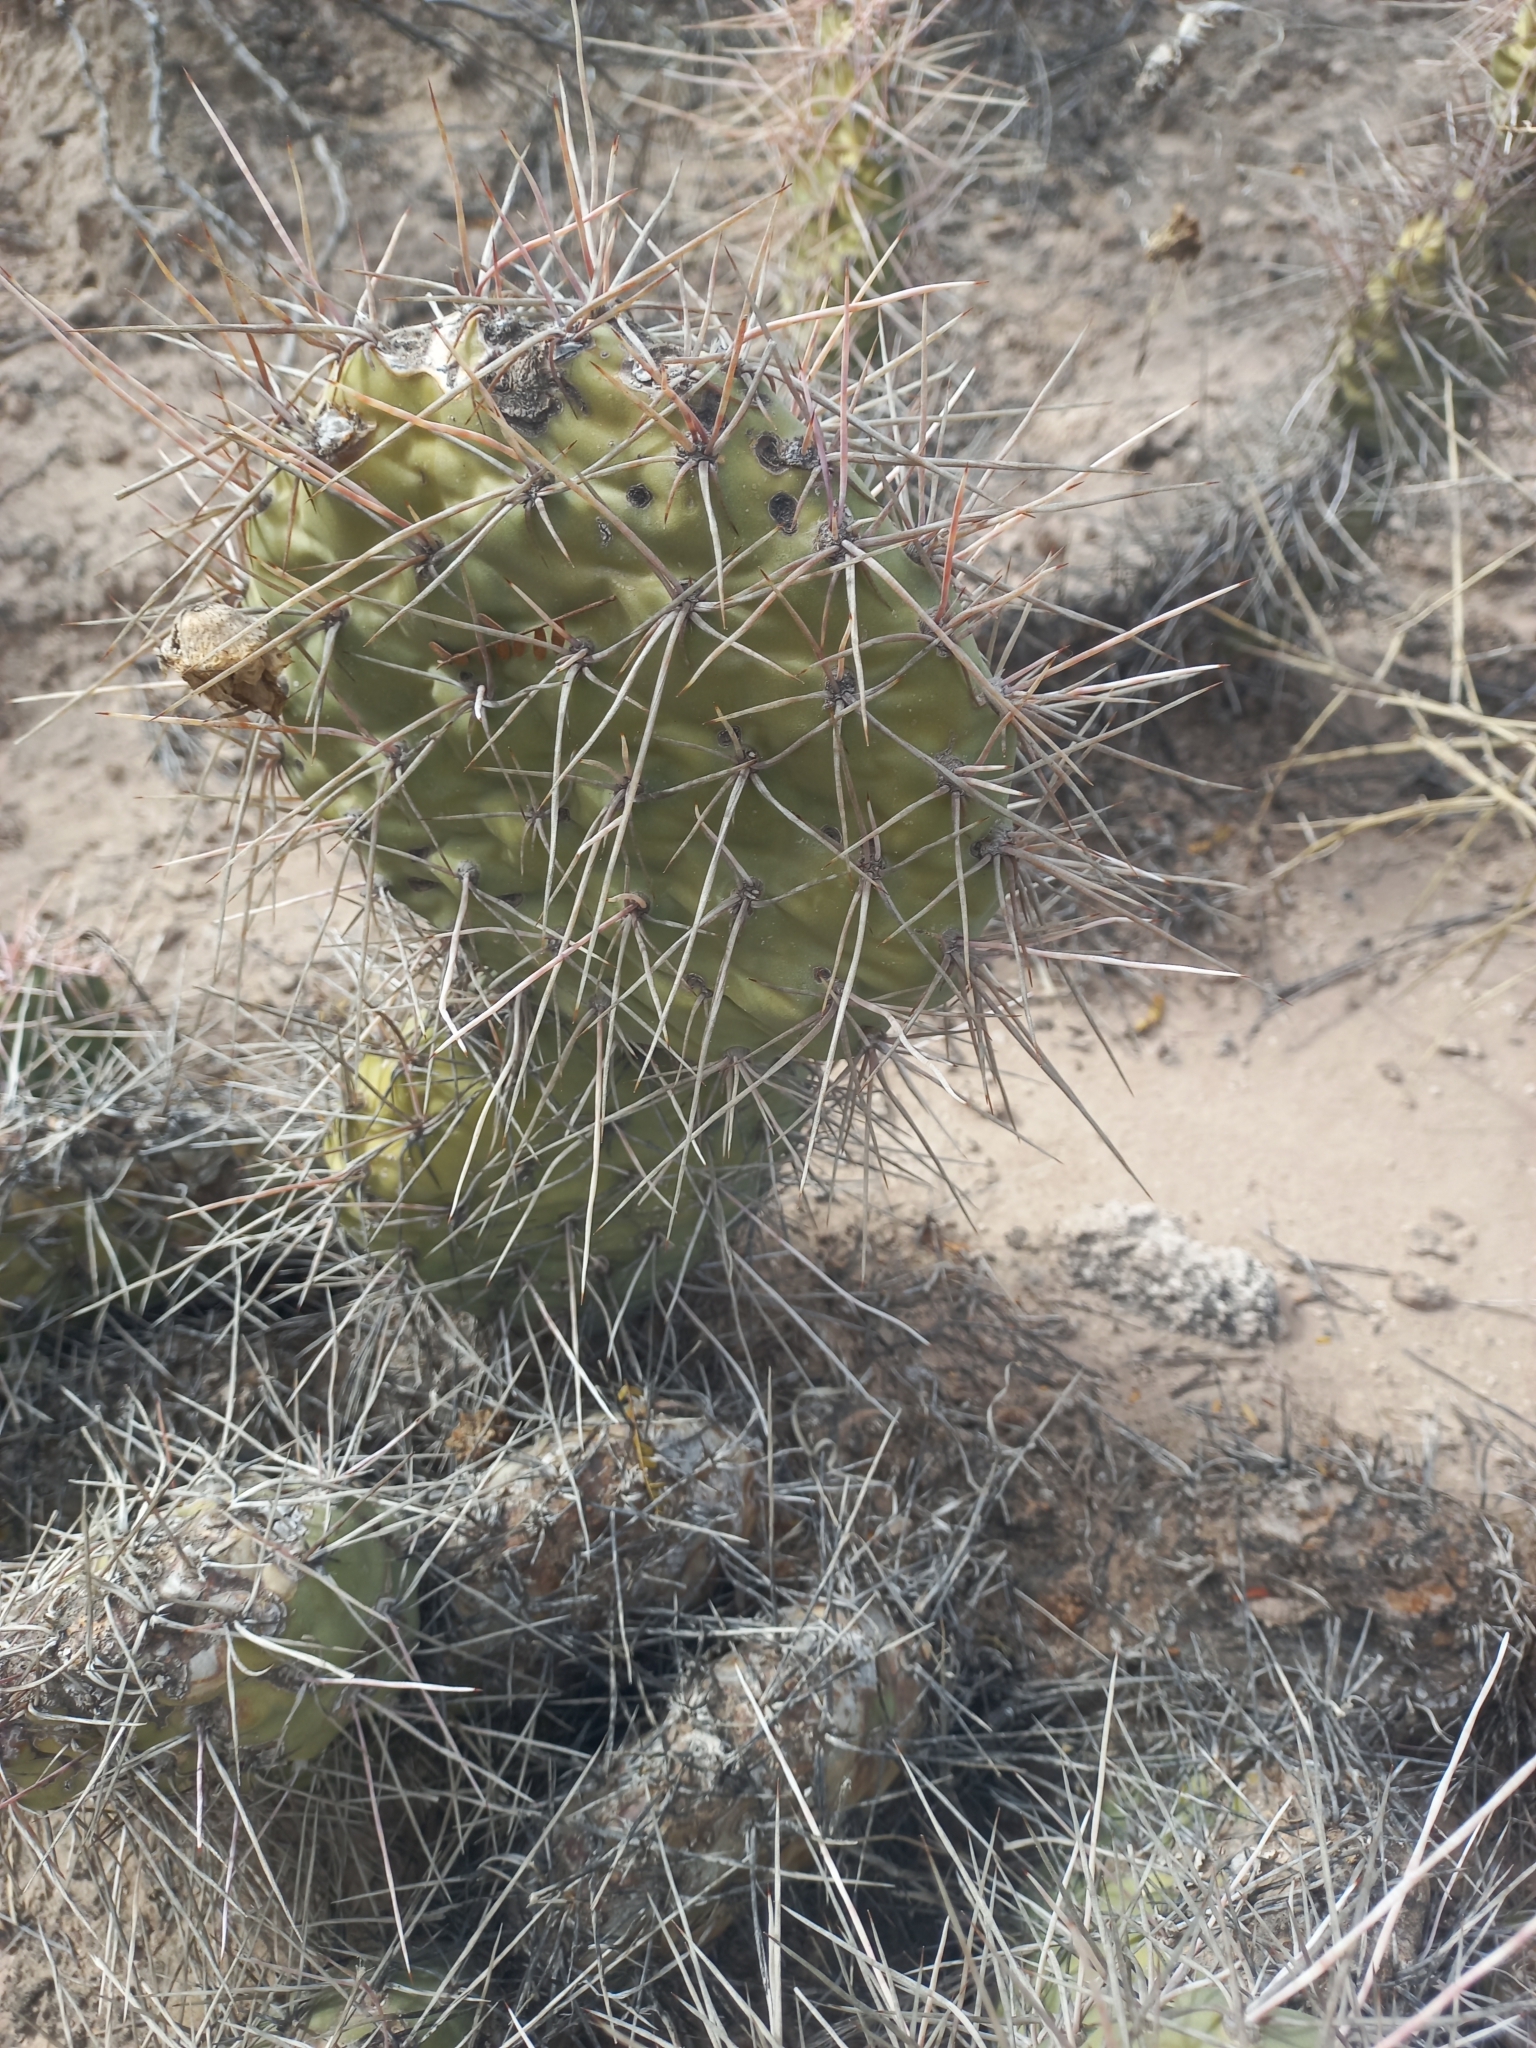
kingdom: Plantae
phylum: Tracheophyta
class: Magnoliopsida
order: Caryophyllales
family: Cactaceae
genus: Opuntia
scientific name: Opuntia sulphurea
